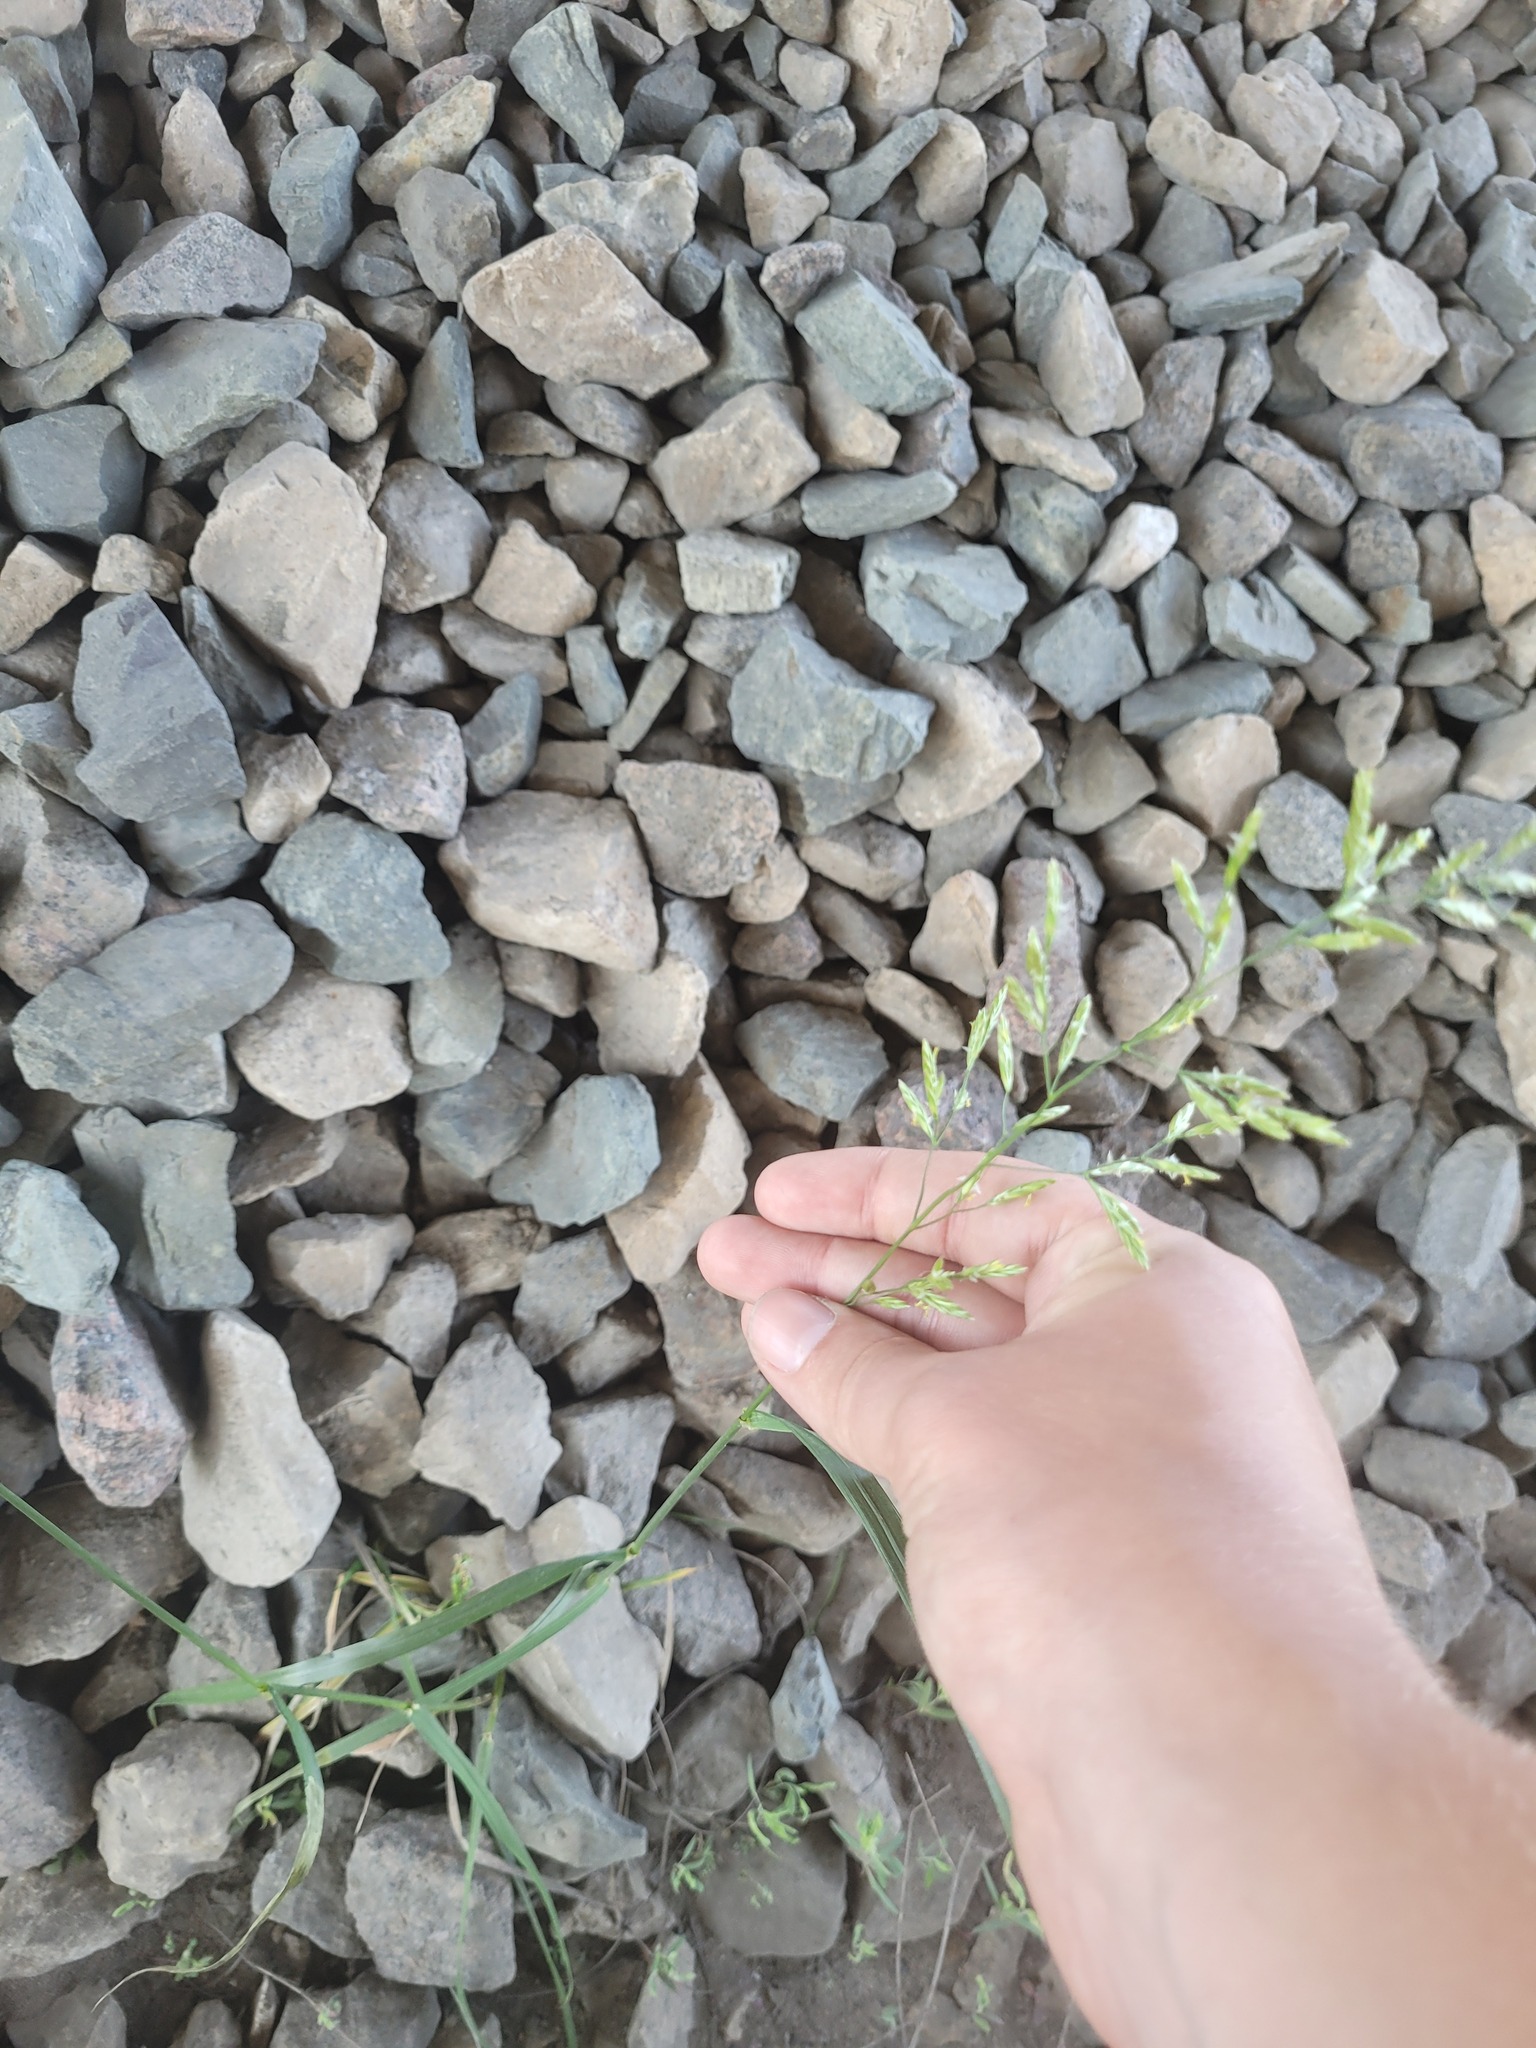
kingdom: Plantae
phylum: Tracheophyta
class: Liliopsida
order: Poales
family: Poaceae
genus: Lolium
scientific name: Lolium pratense
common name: Dover grass
